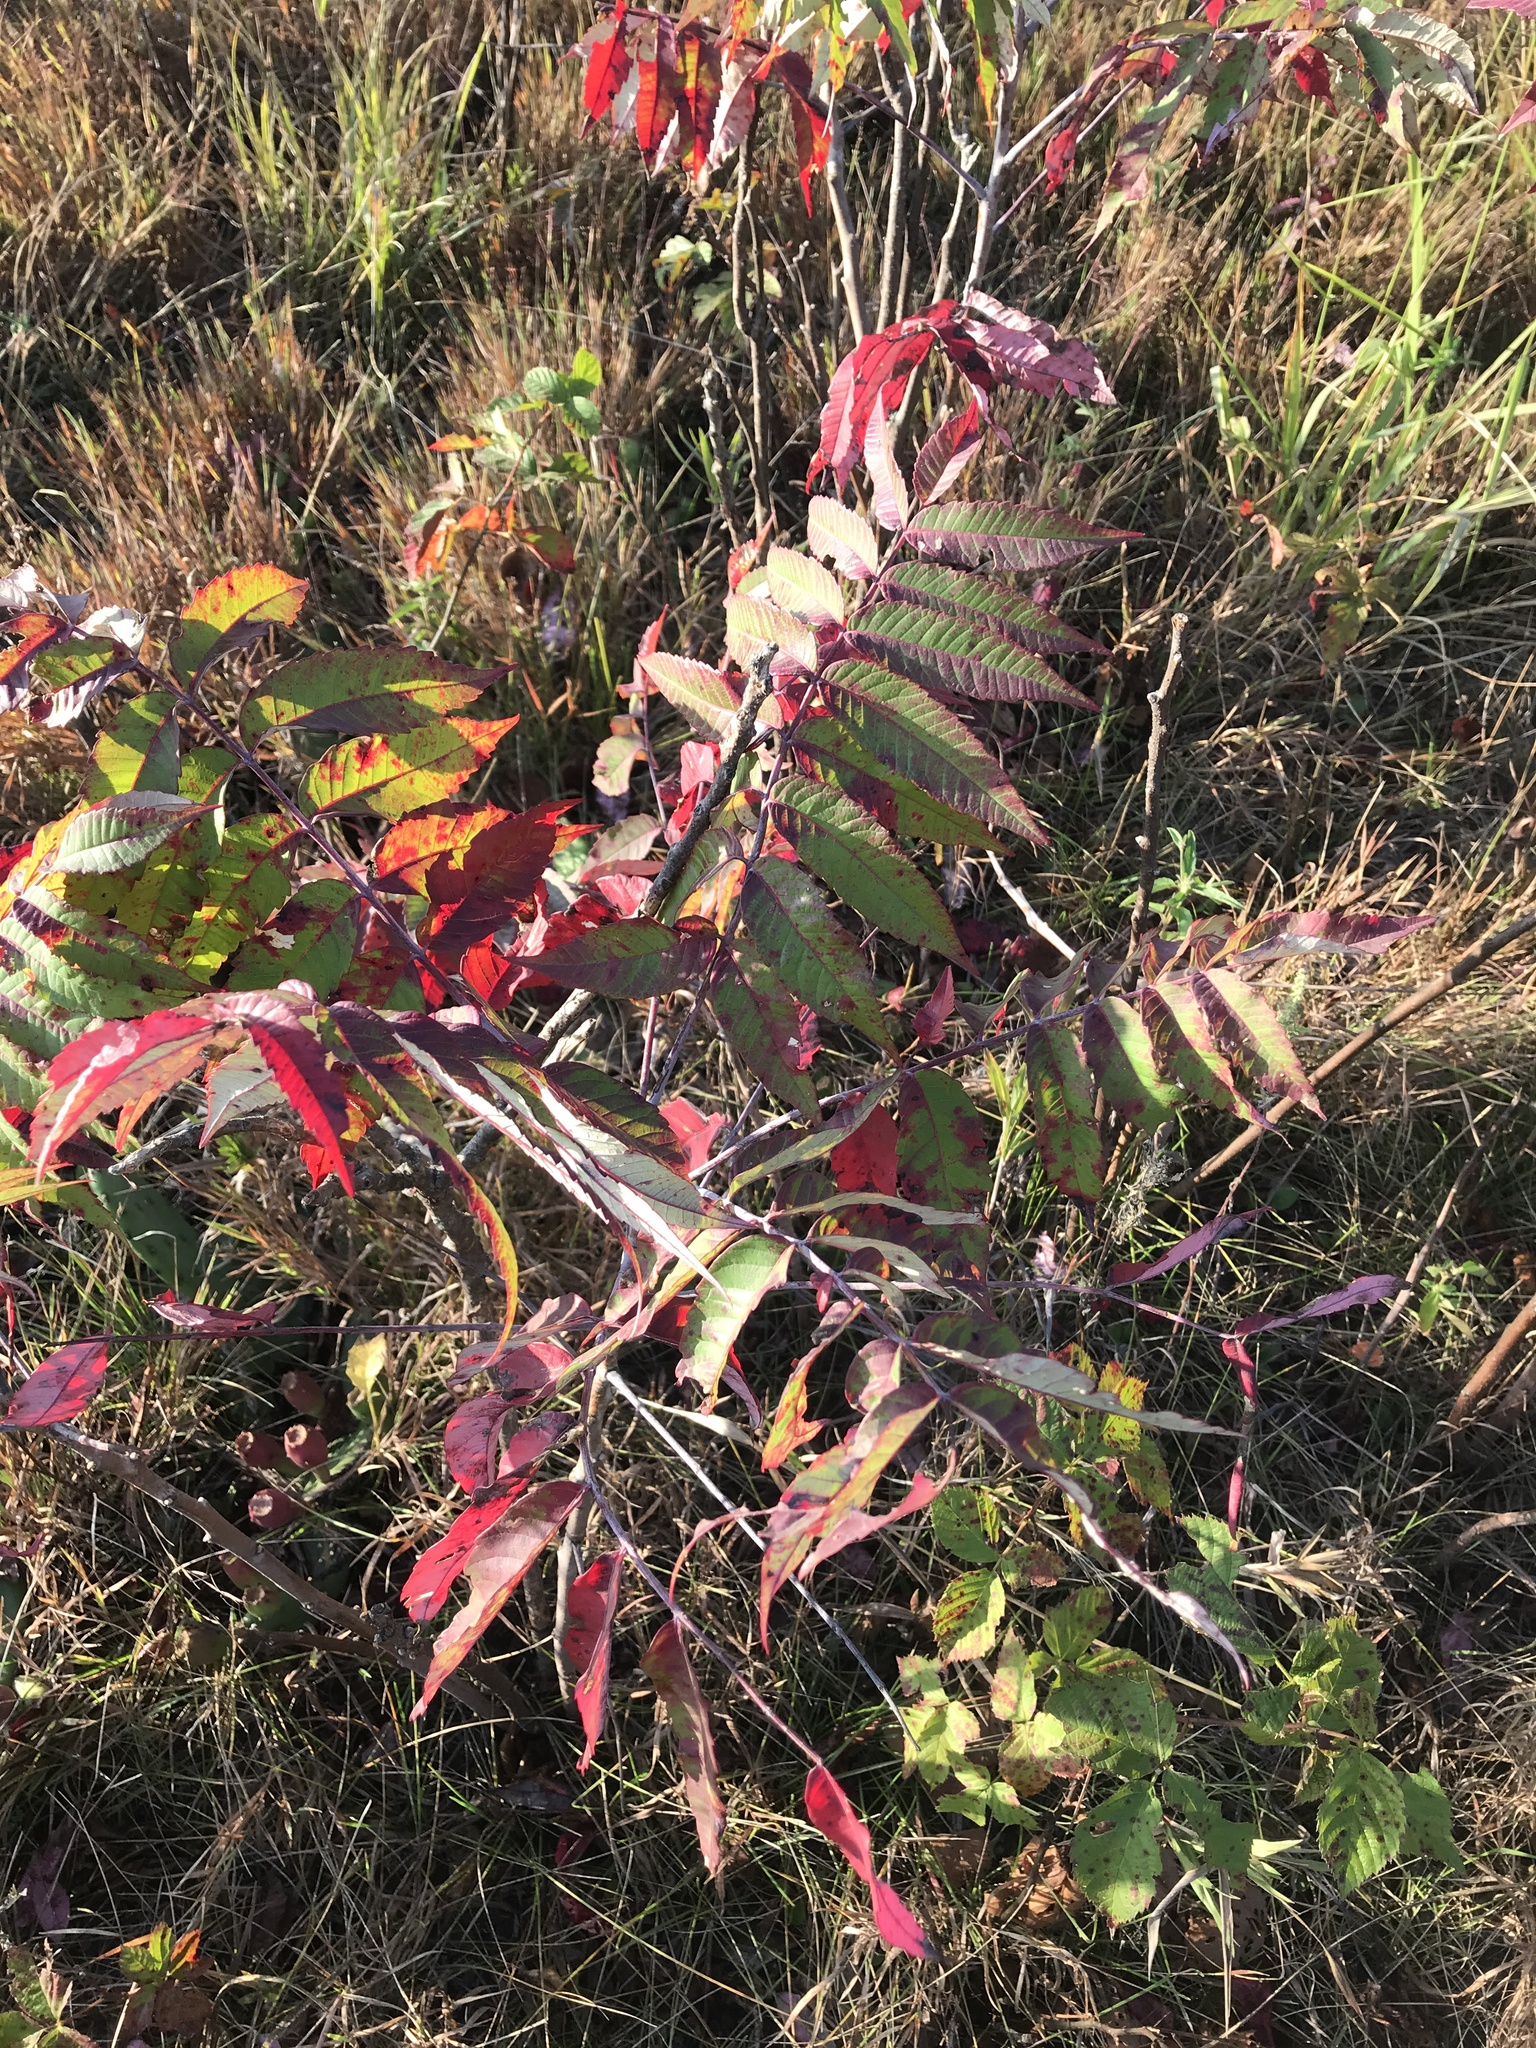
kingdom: Plantae
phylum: Tracheophyta
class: Magnoliopsida
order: Sapindales
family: Anacardiaceae
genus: Rhus
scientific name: Rhus glabra
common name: Scarlet sumac
